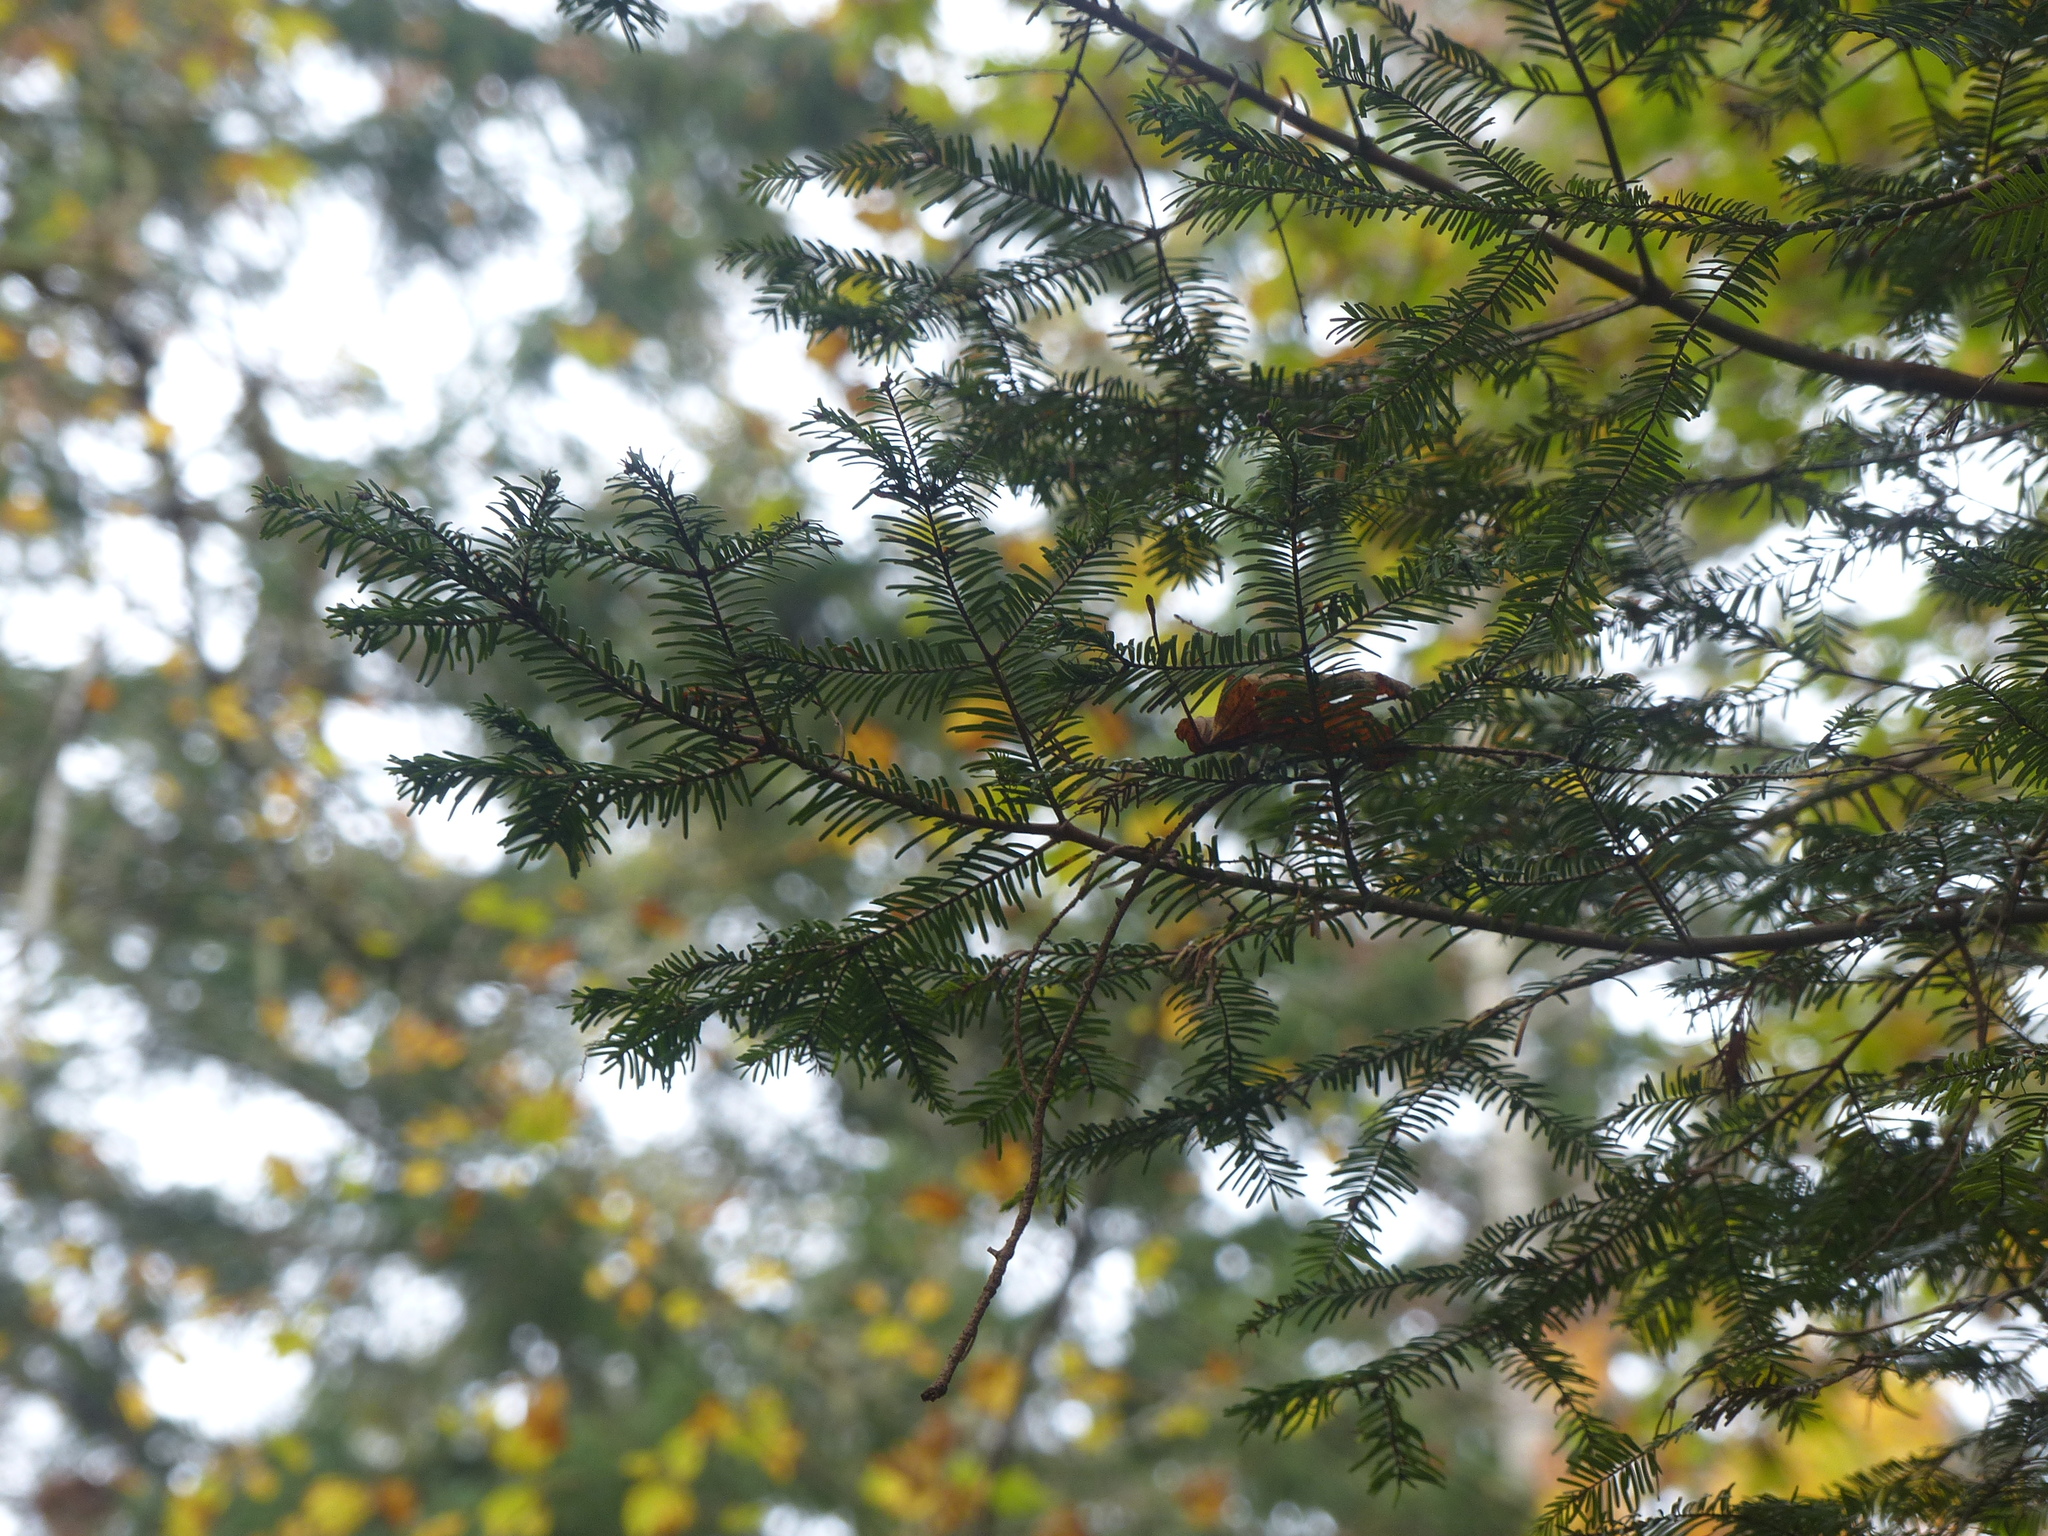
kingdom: Plantae
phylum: Tracheophyta
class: Pinopsida
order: Pinales
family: Pinaceae
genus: Abies
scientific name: Abies grandis
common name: Giant fir
